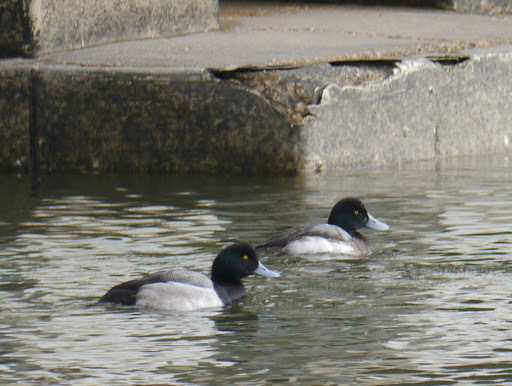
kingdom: Animalia
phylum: Chordata
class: Aves
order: Anseriformes
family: Anatidae
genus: Aythya
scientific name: Aythya marila
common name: Greater scaup
